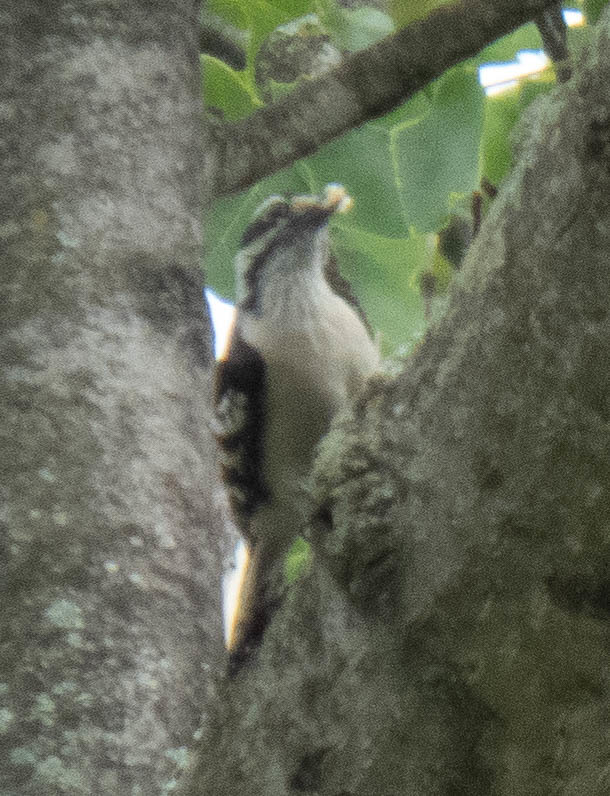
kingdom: Animalia
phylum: Chordata
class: Aves
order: Piciformes
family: Picidae
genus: Dryobates
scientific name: Dryobates pubescens
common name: Downy woodpecker
